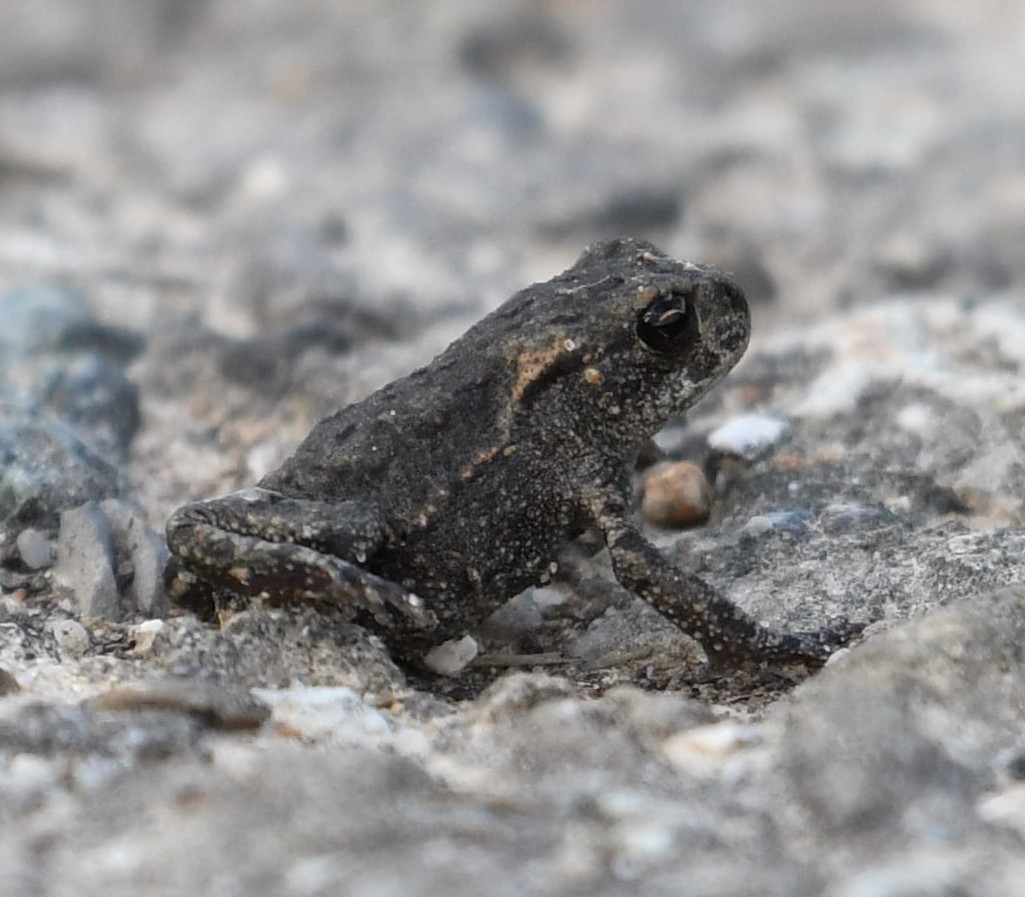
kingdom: Animalia
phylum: Chordata
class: Amphibia
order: Anura
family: Bufonidae
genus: Bufo
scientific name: Bufo bufo
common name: Common toad
